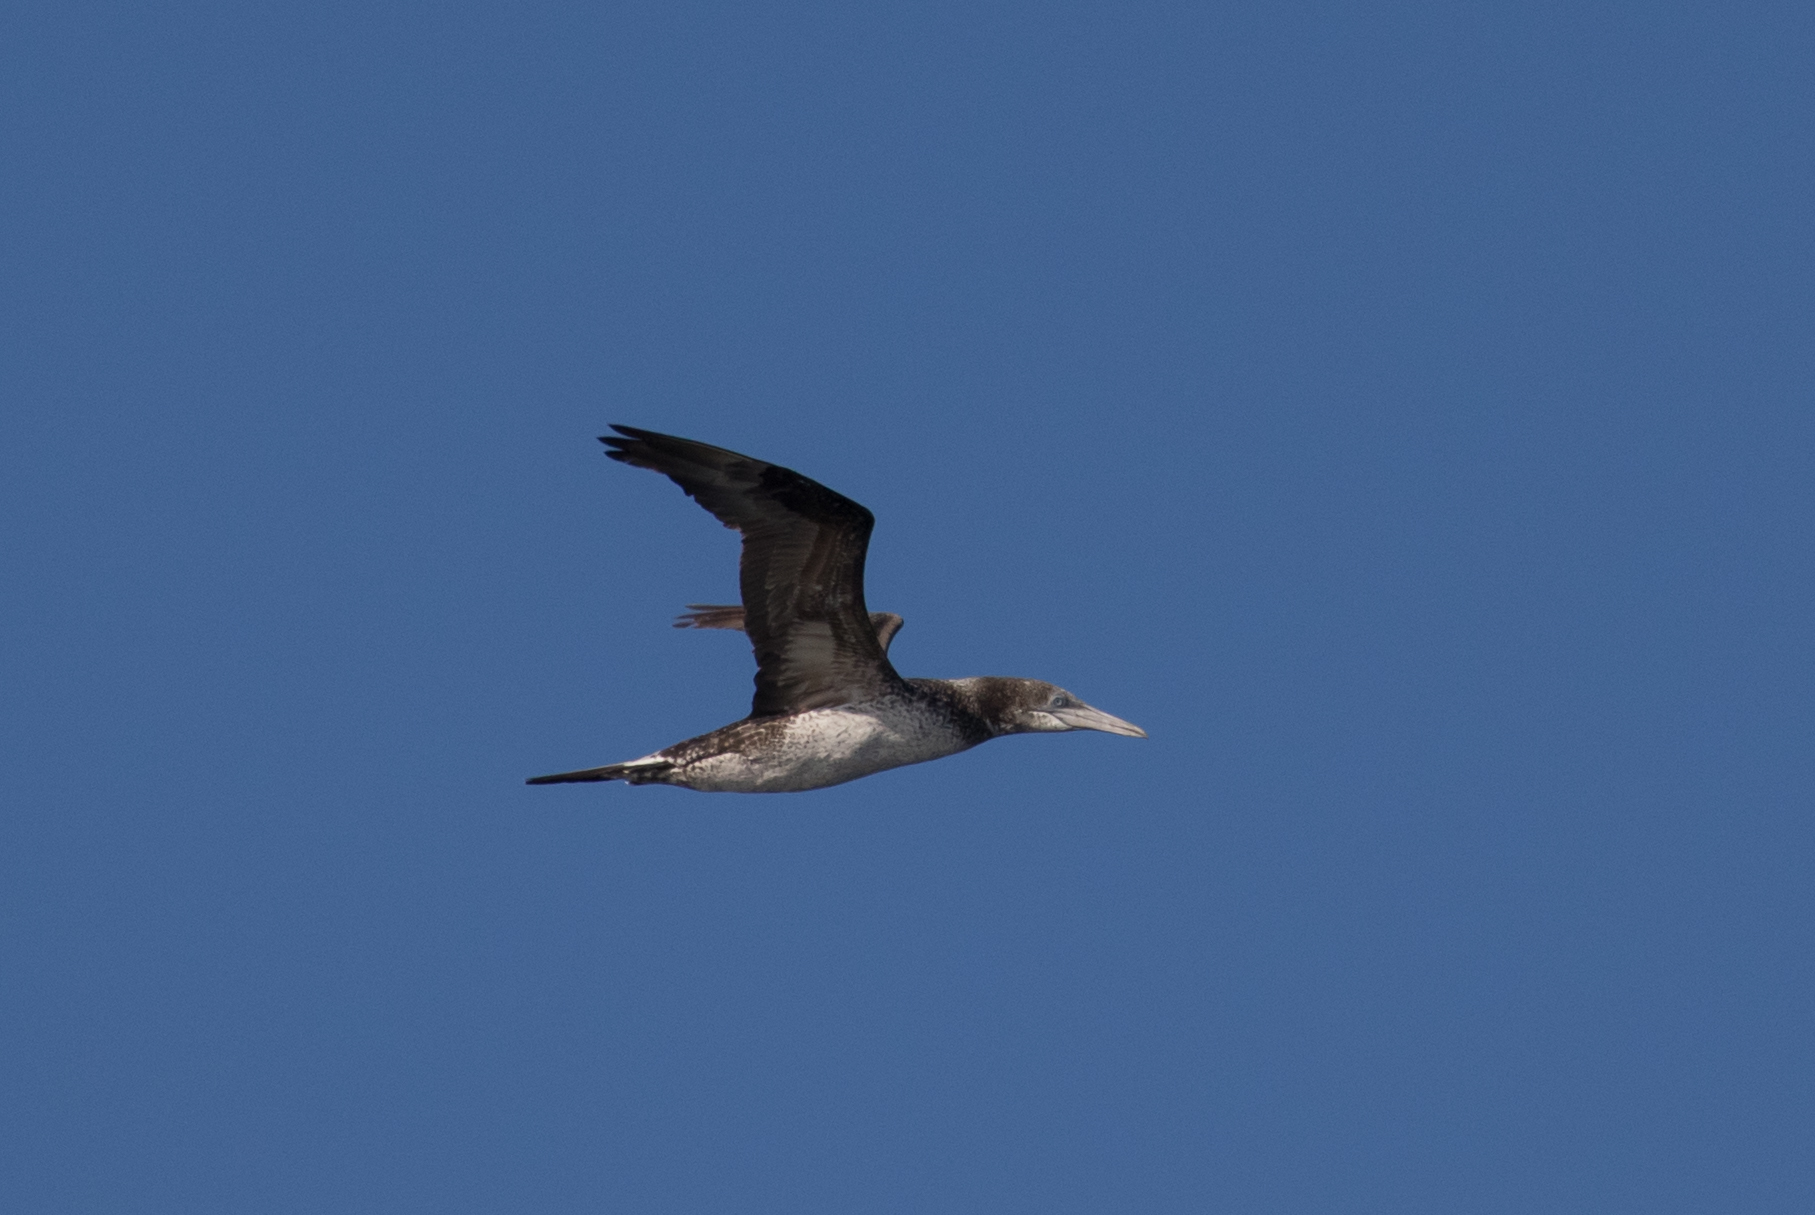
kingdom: Animalia
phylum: Chordata
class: Aves
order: Suliformes
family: Sulidae
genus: Morus
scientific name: Morus bassanus
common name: Northern gannet
